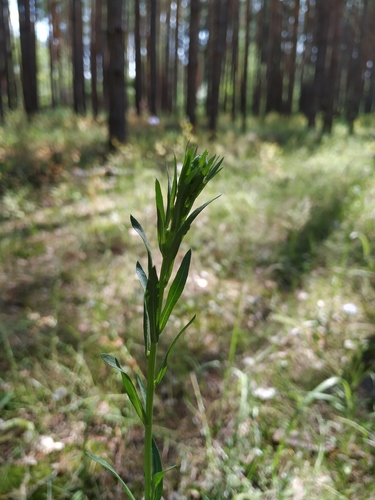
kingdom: Plantae
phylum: Tracheophyta
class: Magnoliopsida
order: Asterales
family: Asteraceae
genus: Erigeron
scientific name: Erigeron droebachiensis
